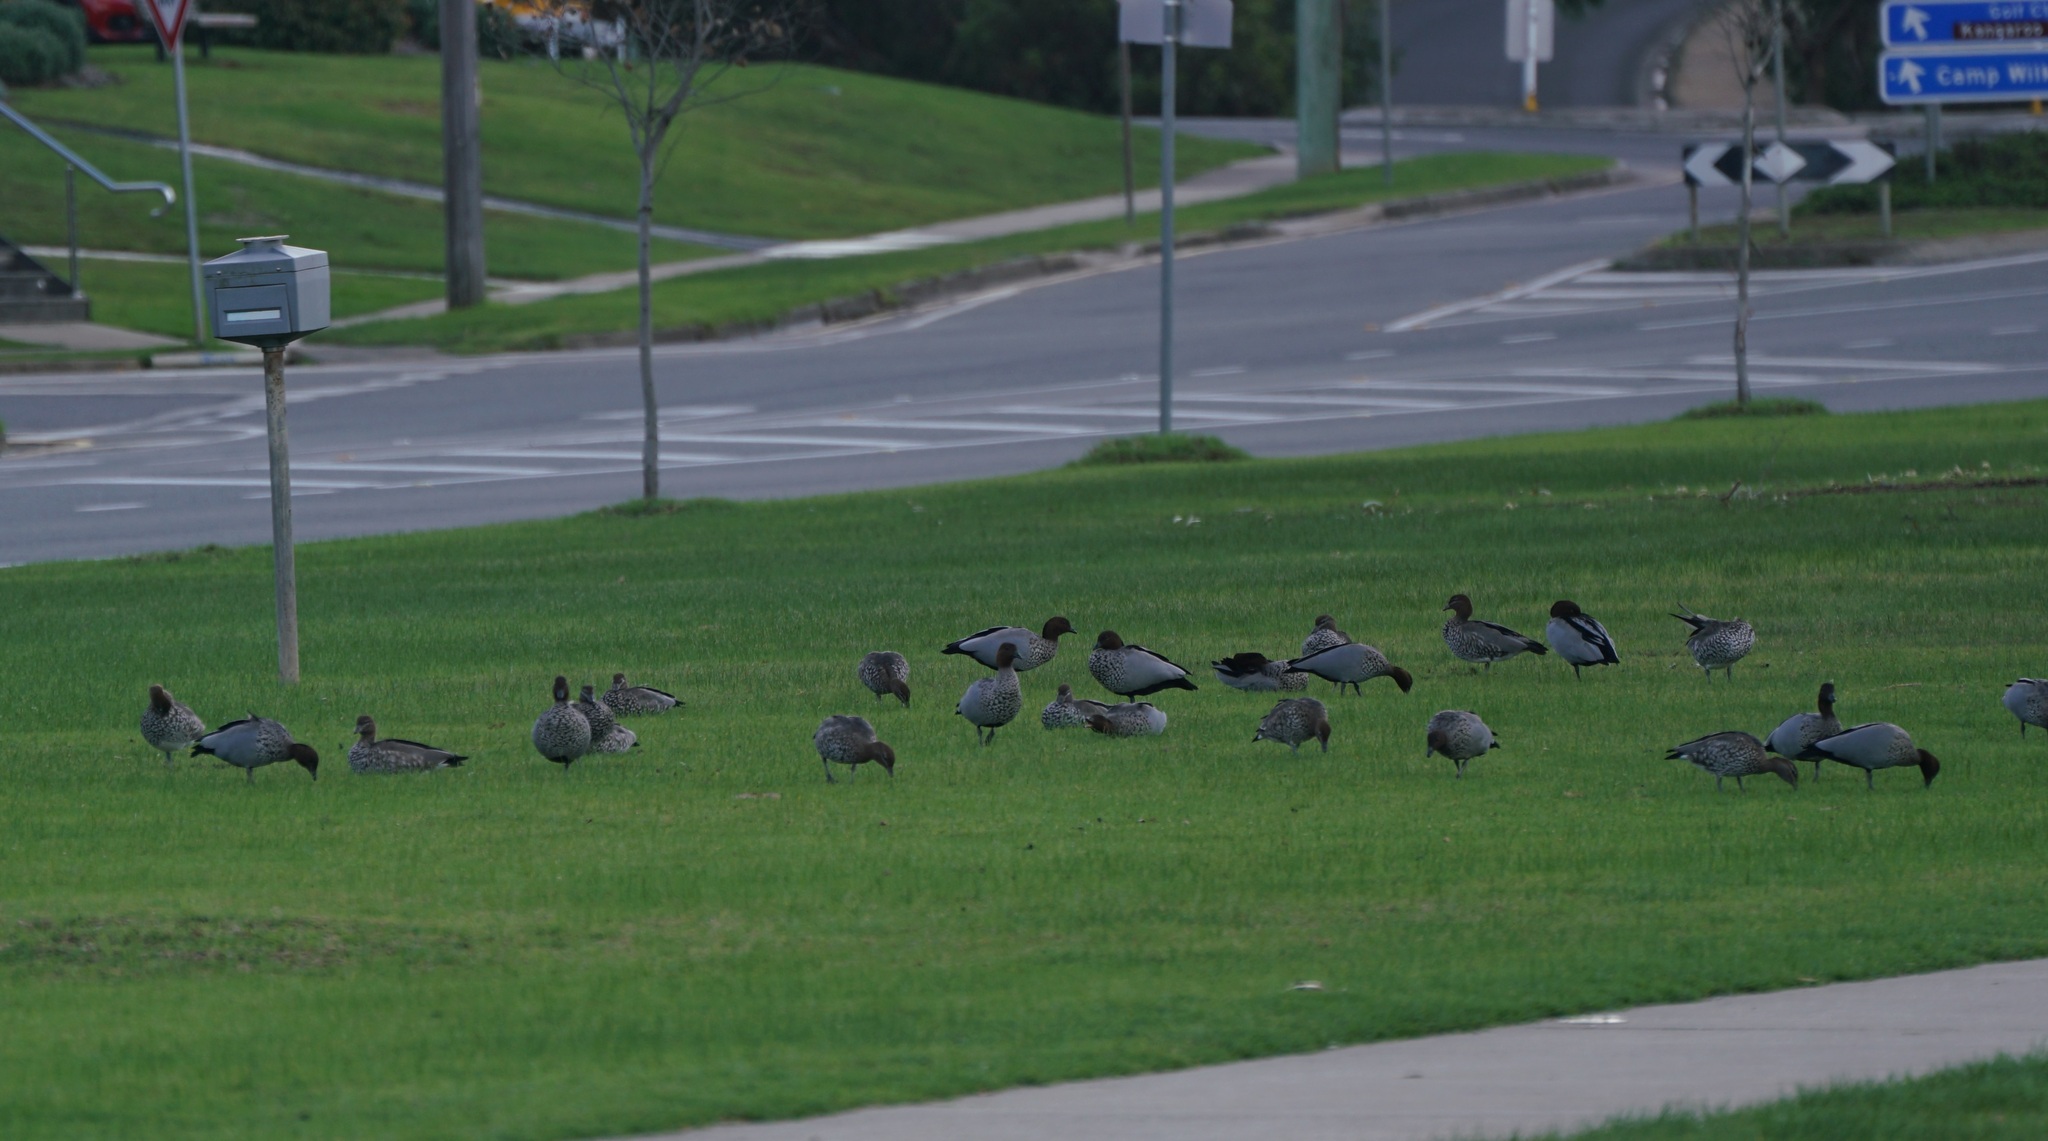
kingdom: Animalia
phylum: Chordata
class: Aves
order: Anseriformes
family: Anatidae
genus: Chenonetta
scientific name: Chenonetta jubata
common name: Maned duck
